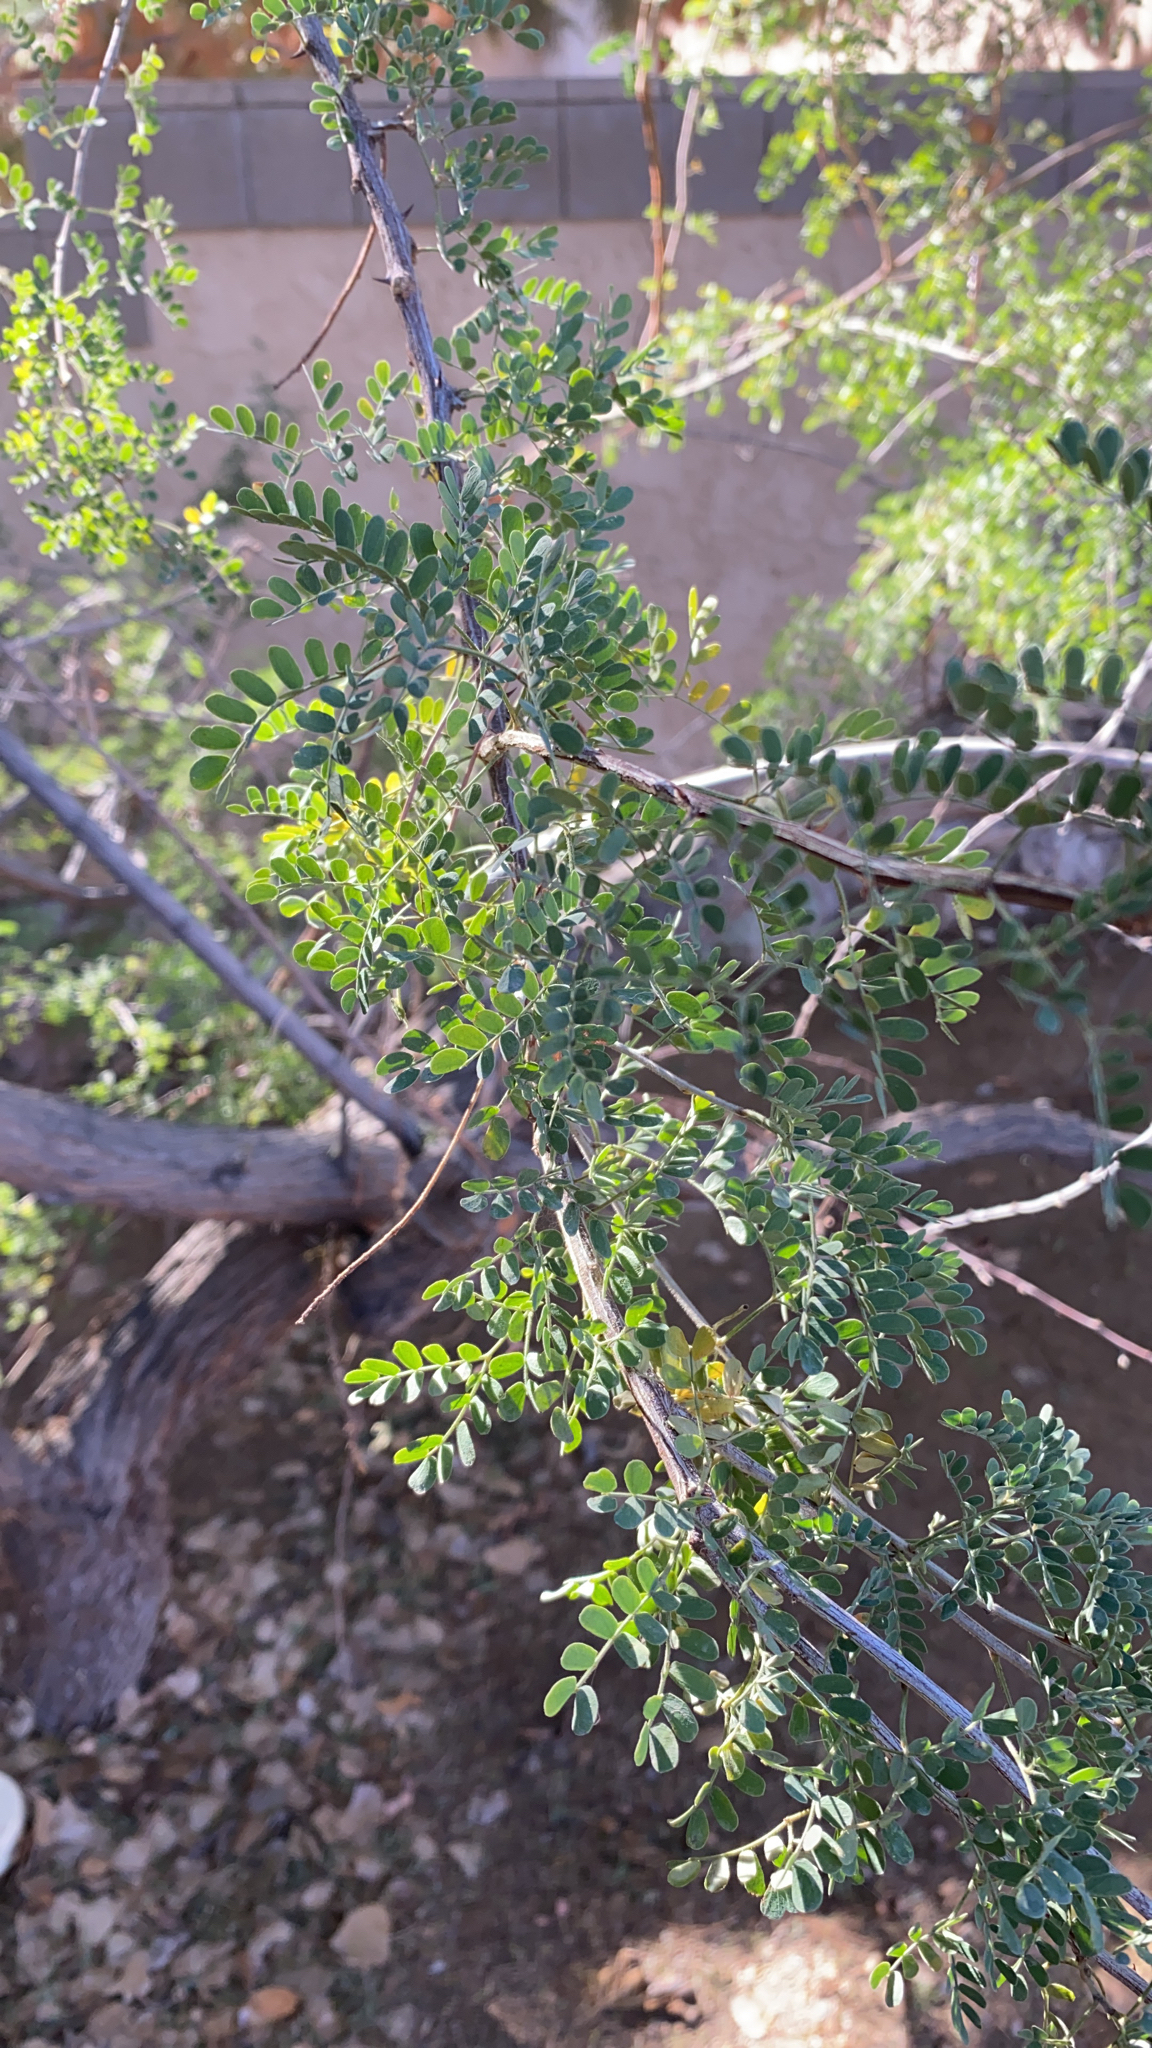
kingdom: Plantae
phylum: Tracheophyta
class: Magnoliopsida
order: Fabales
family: Fabaceae
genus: Senegalia
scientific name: Senegalia greggii
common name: Texas-mimosa
